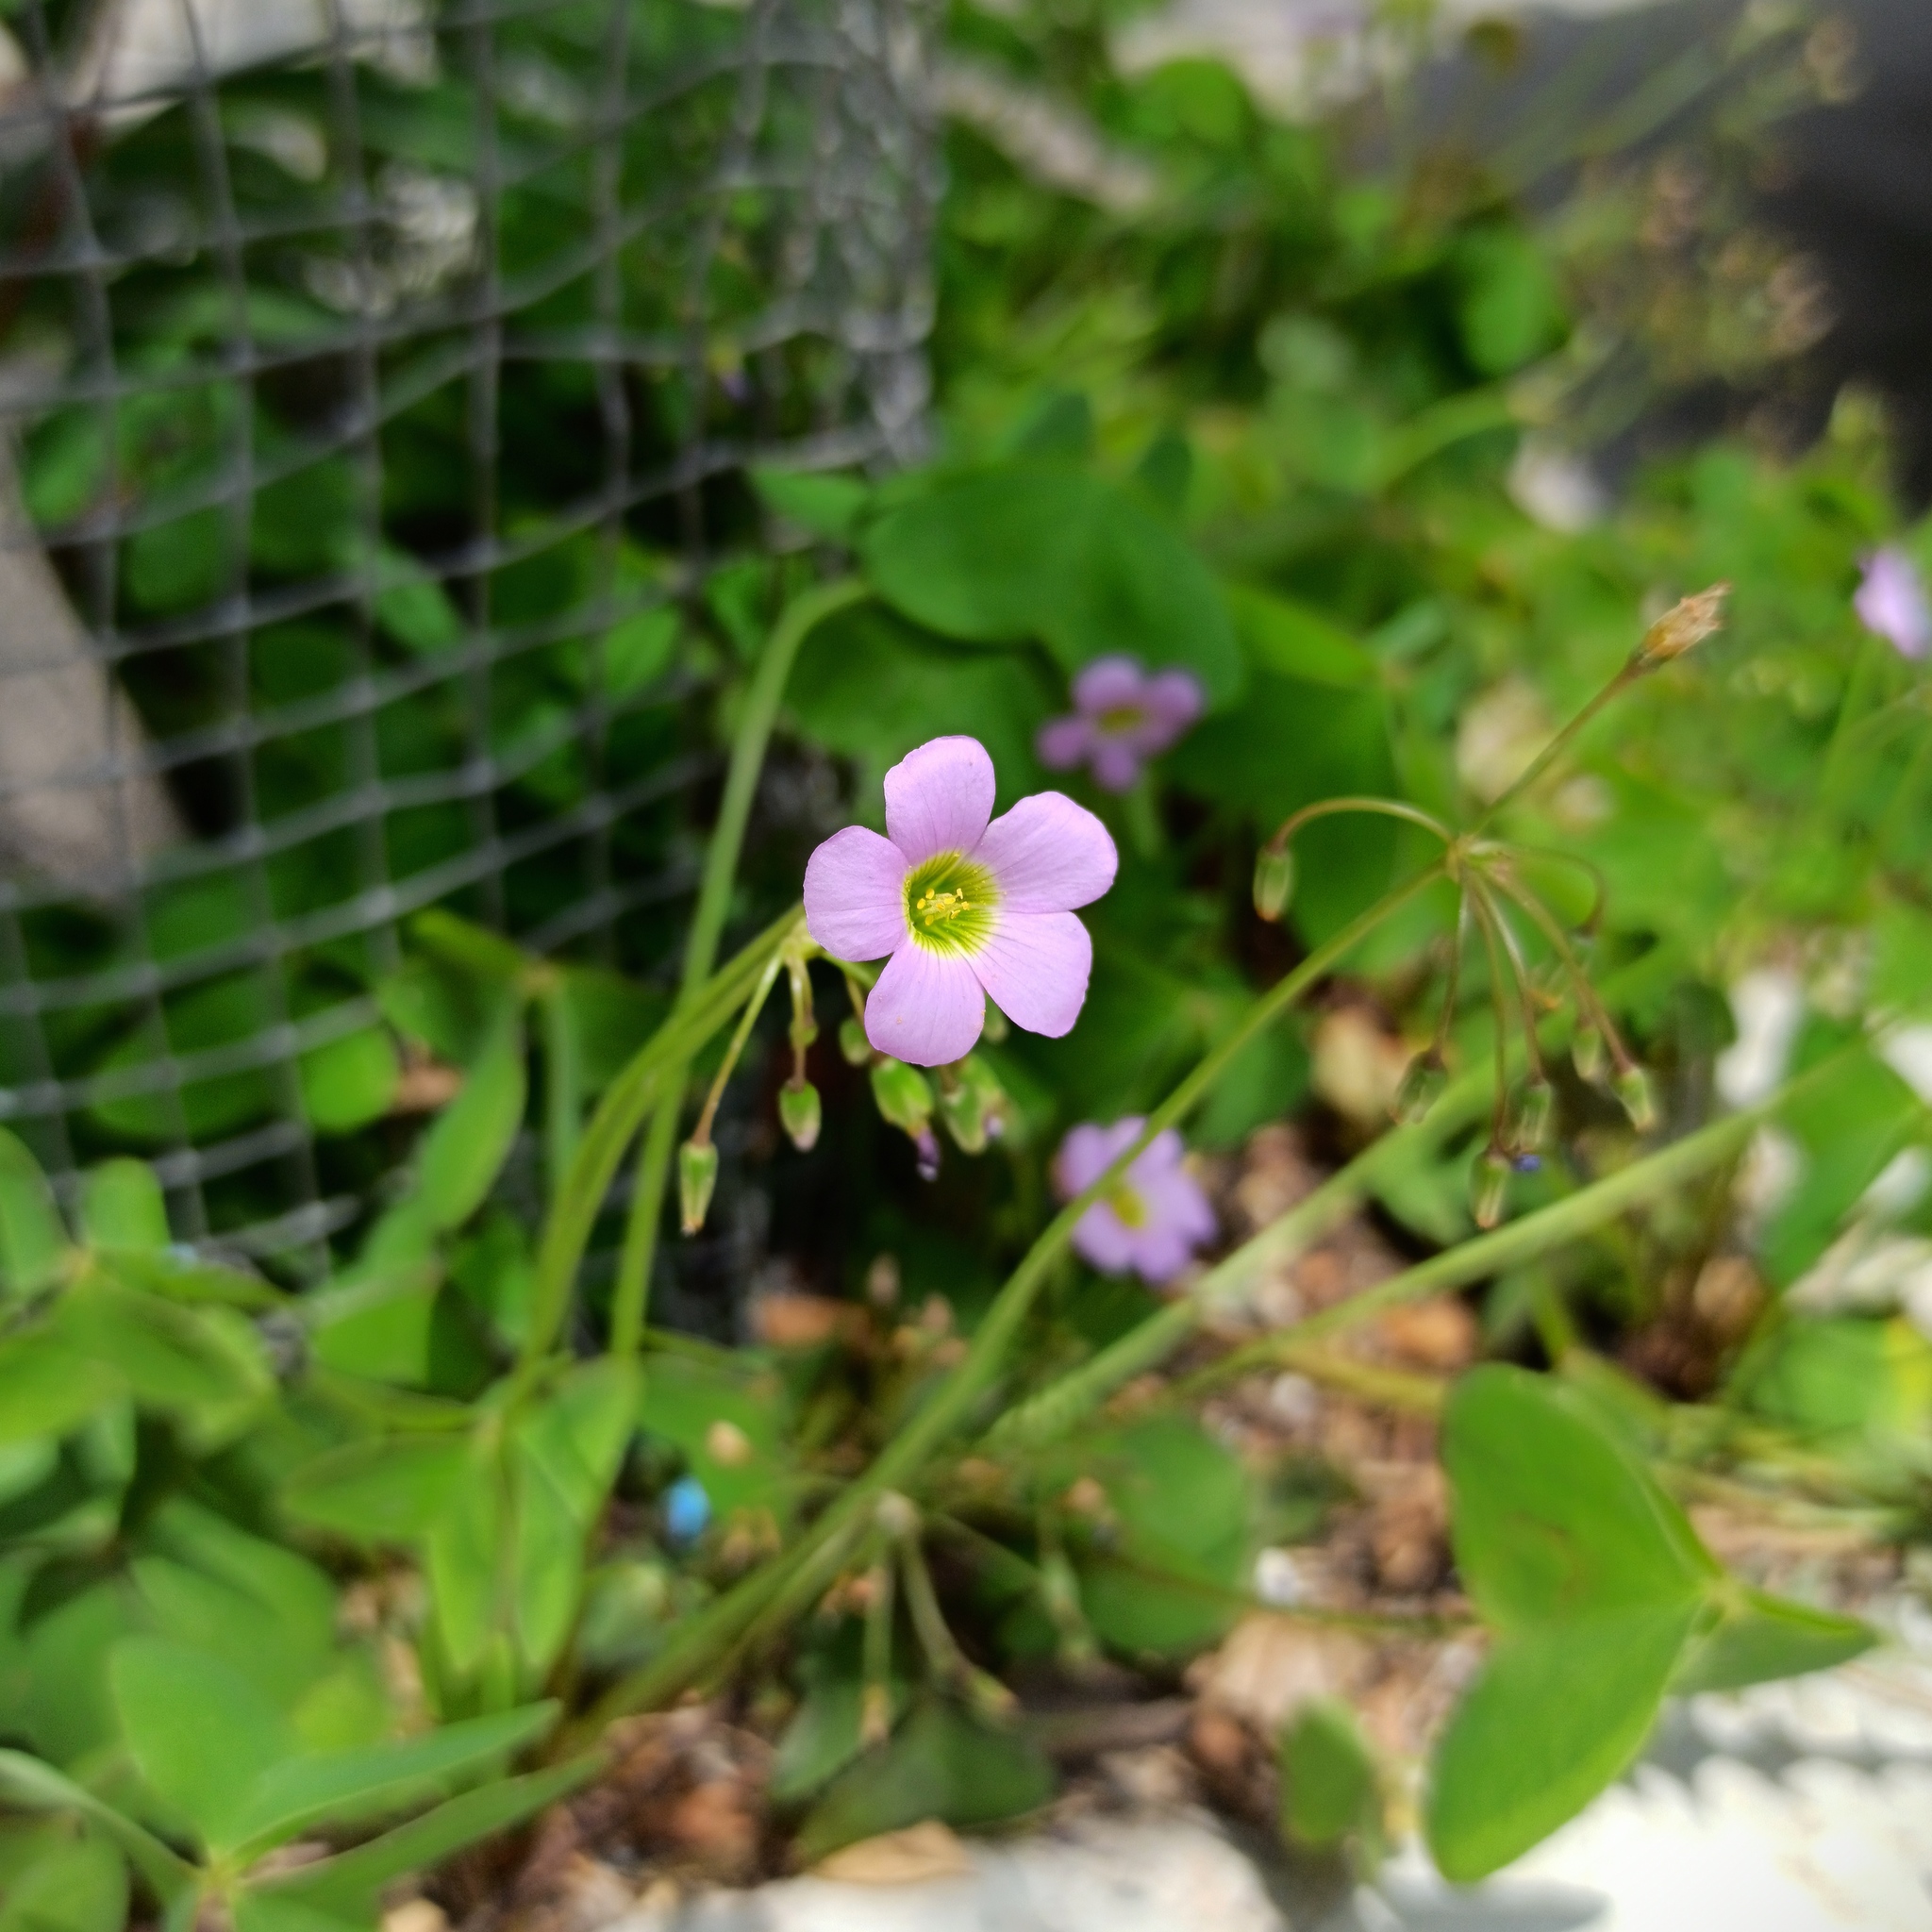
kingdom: Plantae
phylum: Tracheophyta
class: Magnoliopsida
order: Oxalidales
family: Oxalidaceae
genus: Oxalis
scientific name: Oxalis latifolia
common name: Garden pink-sorrel
